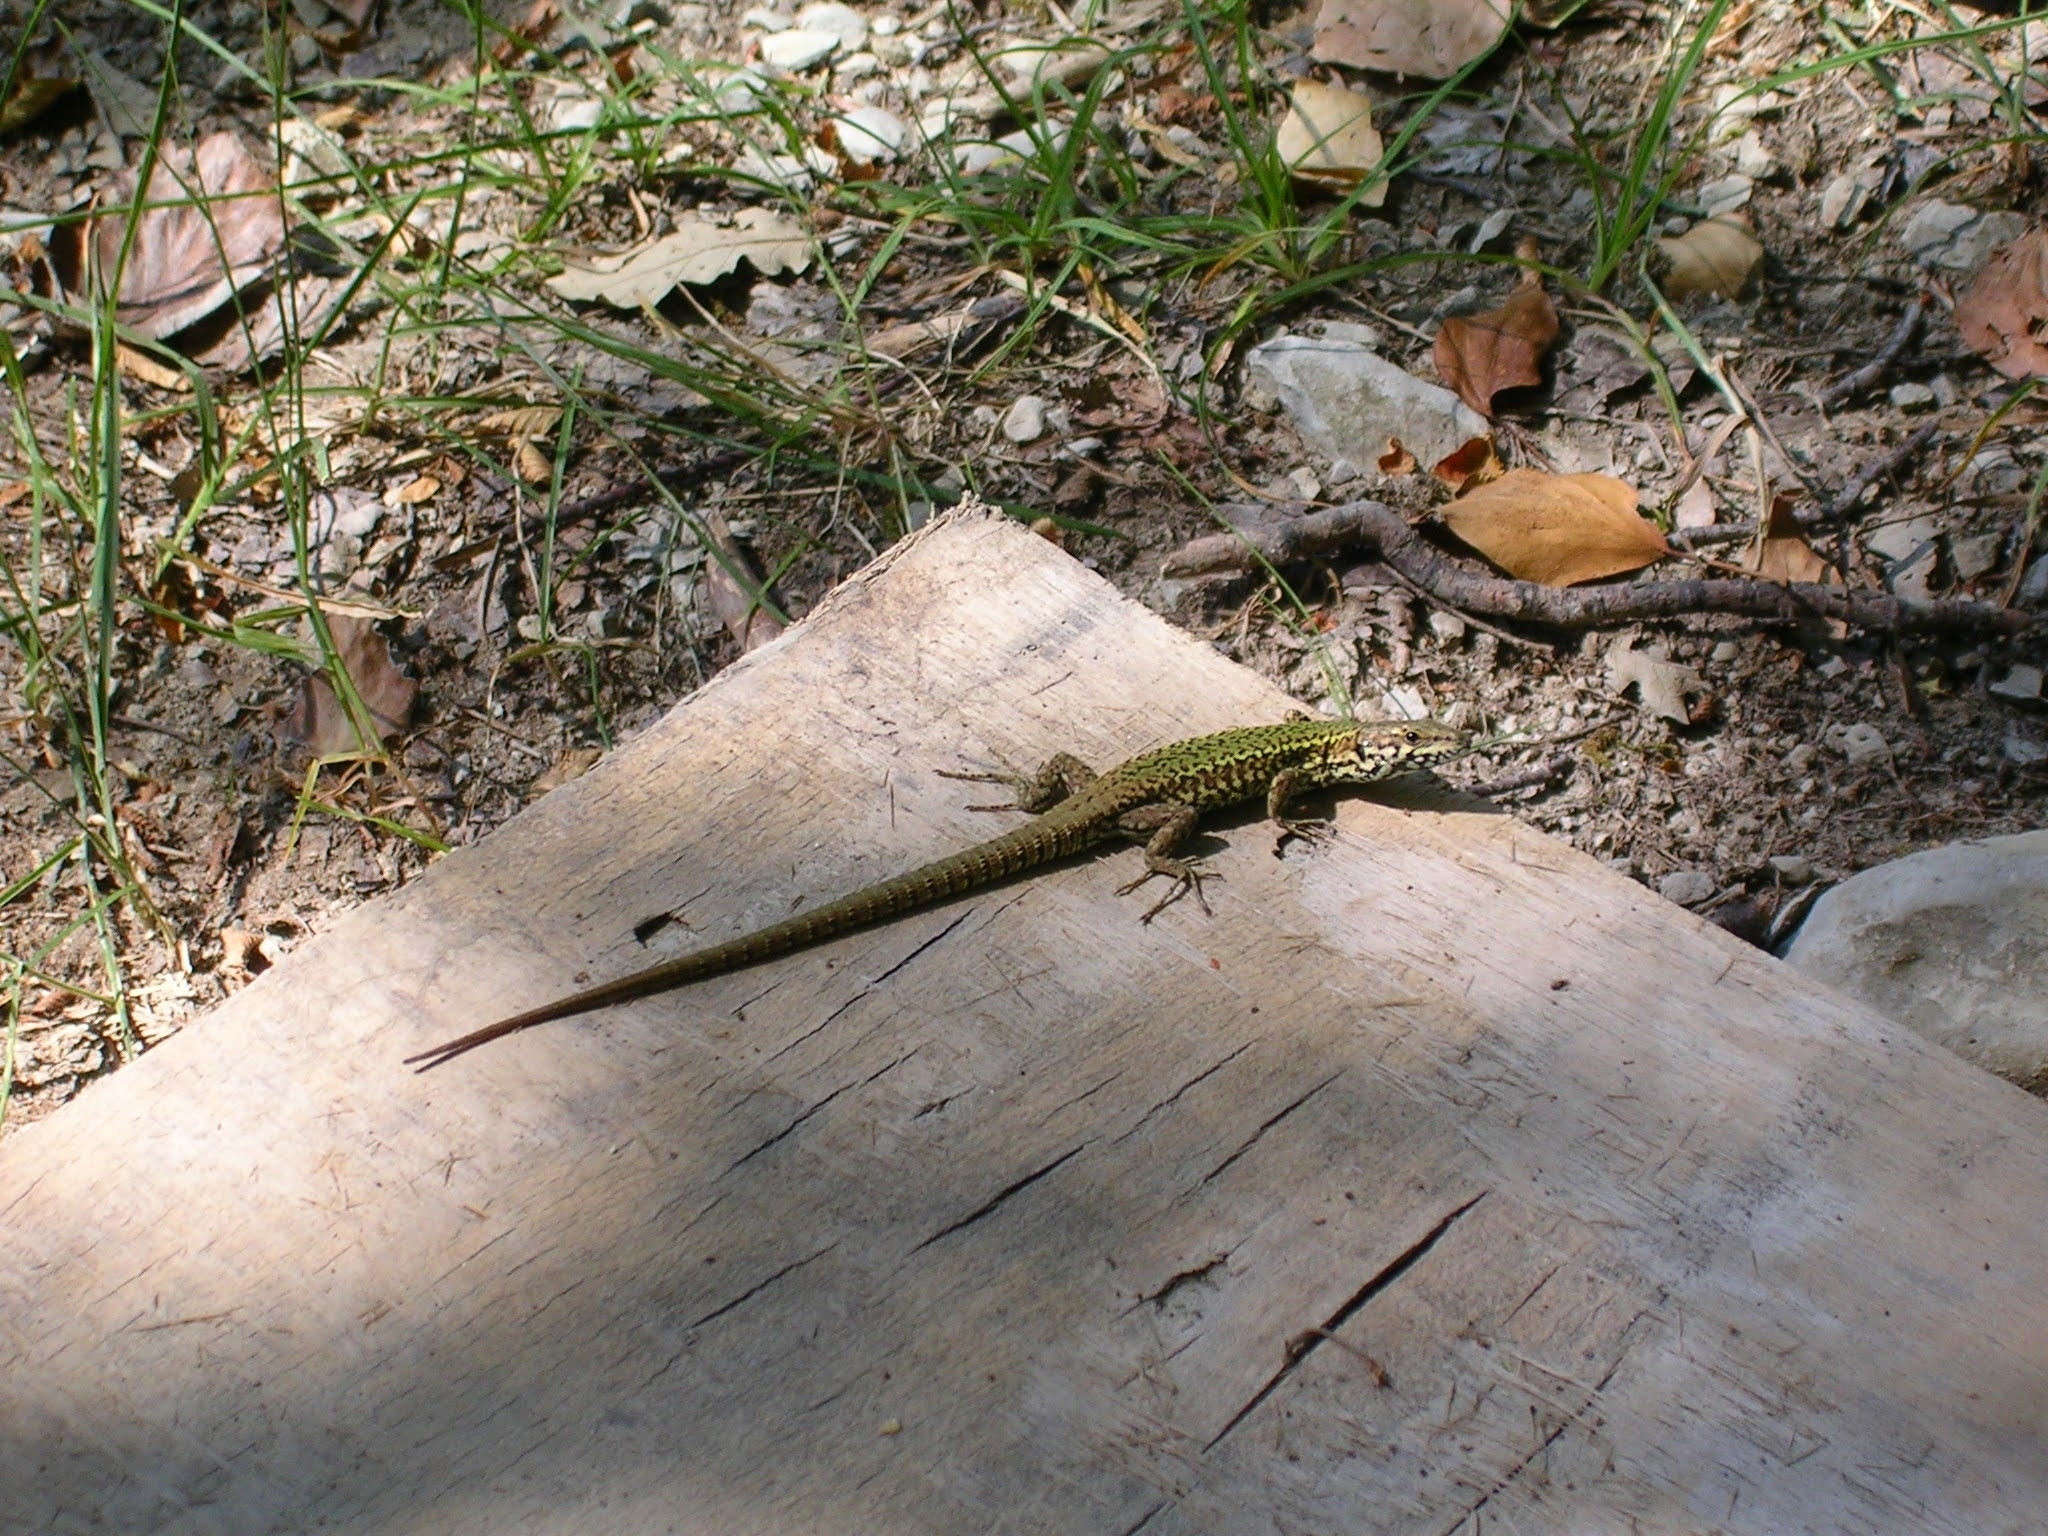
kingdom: Animalia
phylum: Chordata
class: Squamata
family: Lacertidae
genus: Podarcis
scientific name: Podarcis muralis
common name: Common wall lizard
